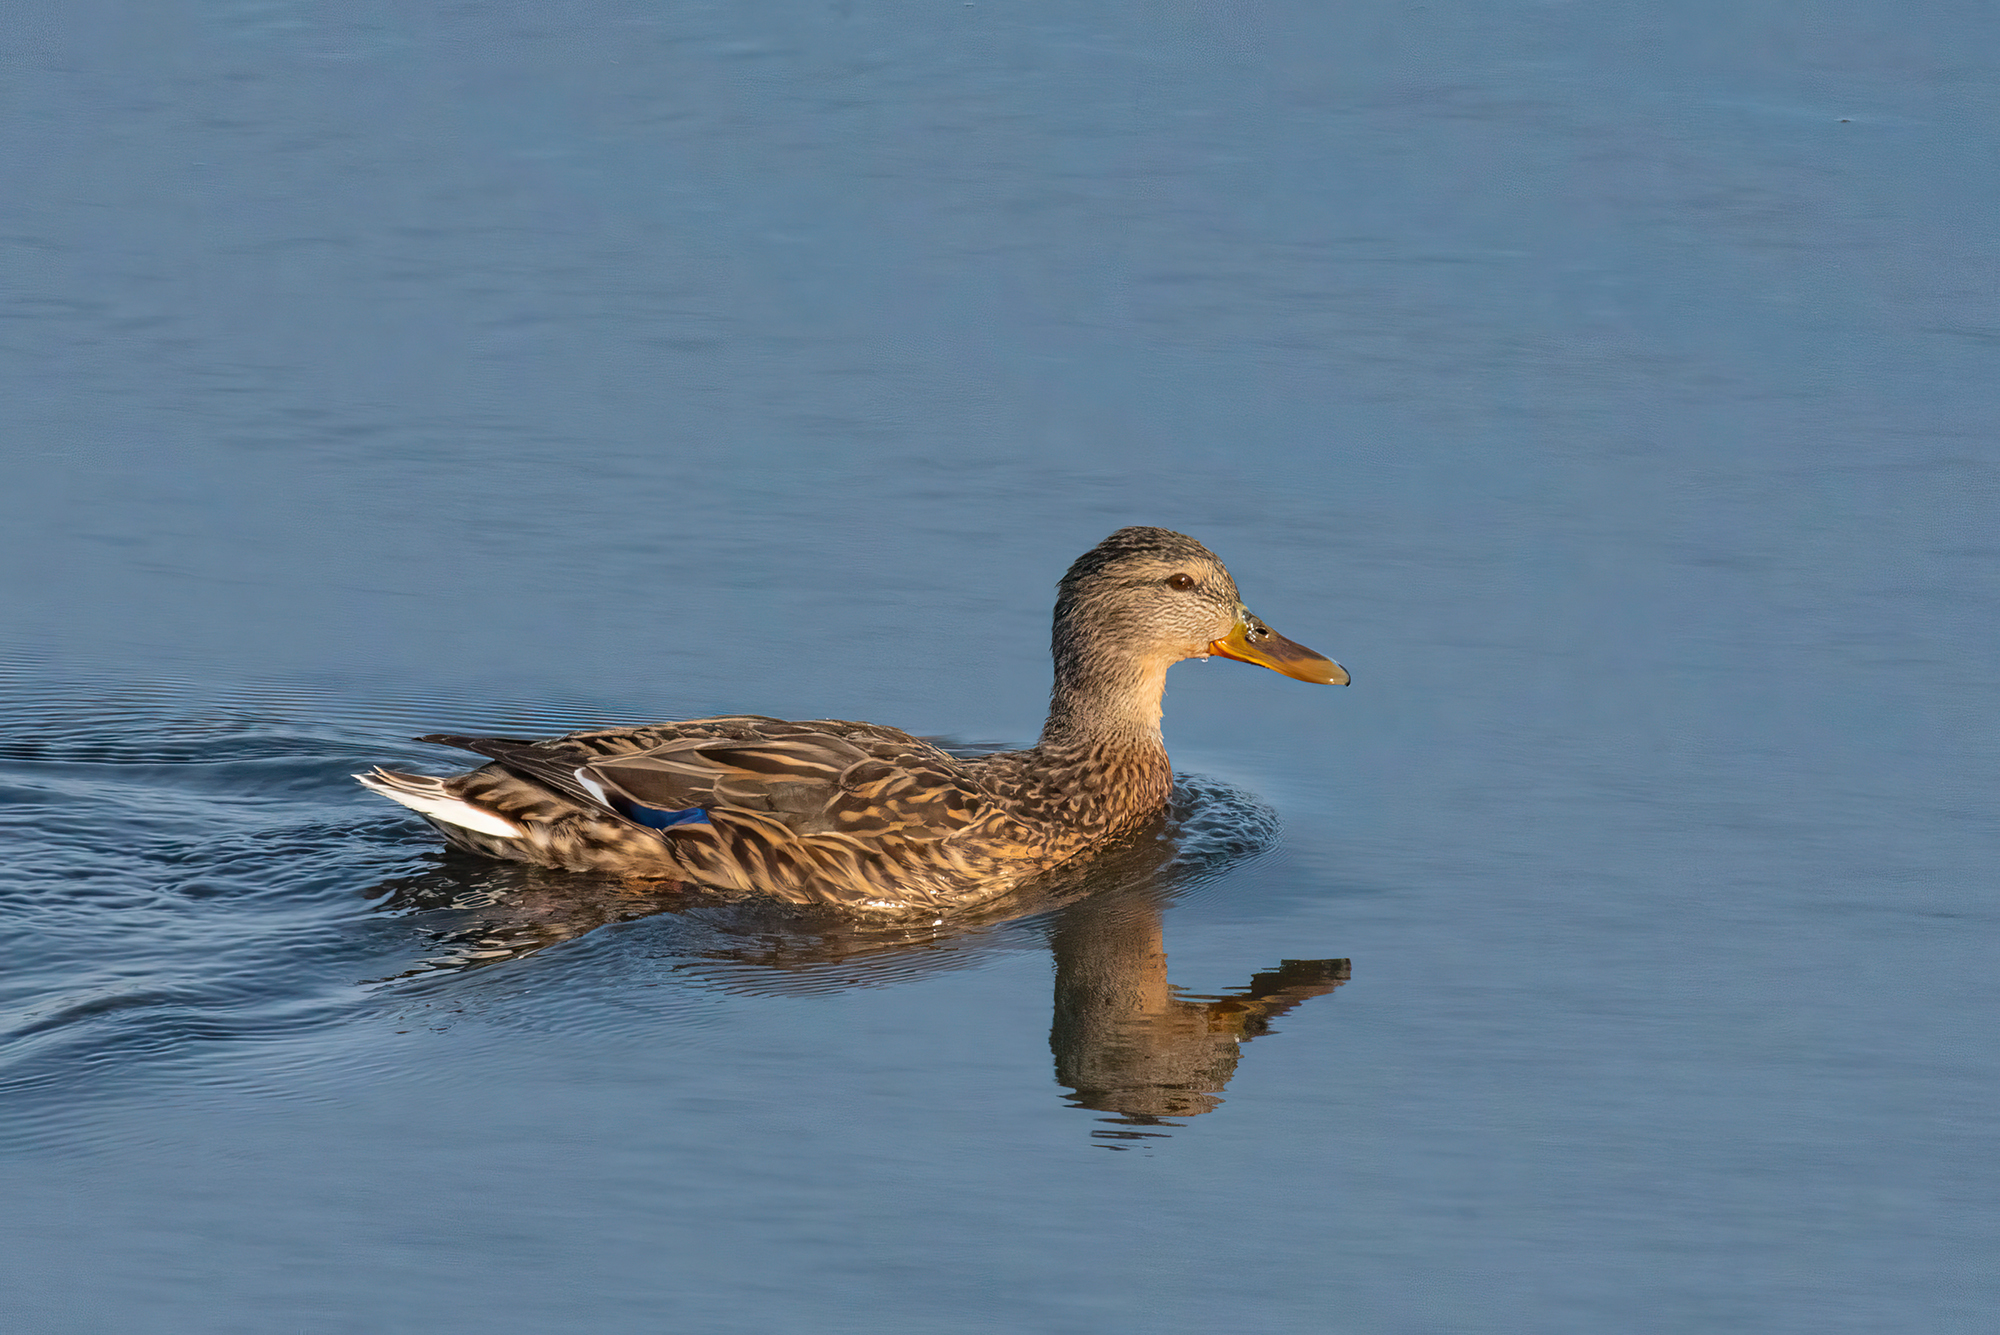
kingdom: Animalia
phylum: Chordata
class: Aves
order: Anseriformes
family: Anatidae
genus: Anas
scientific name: Anas platyrhynchos
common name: Mallard
